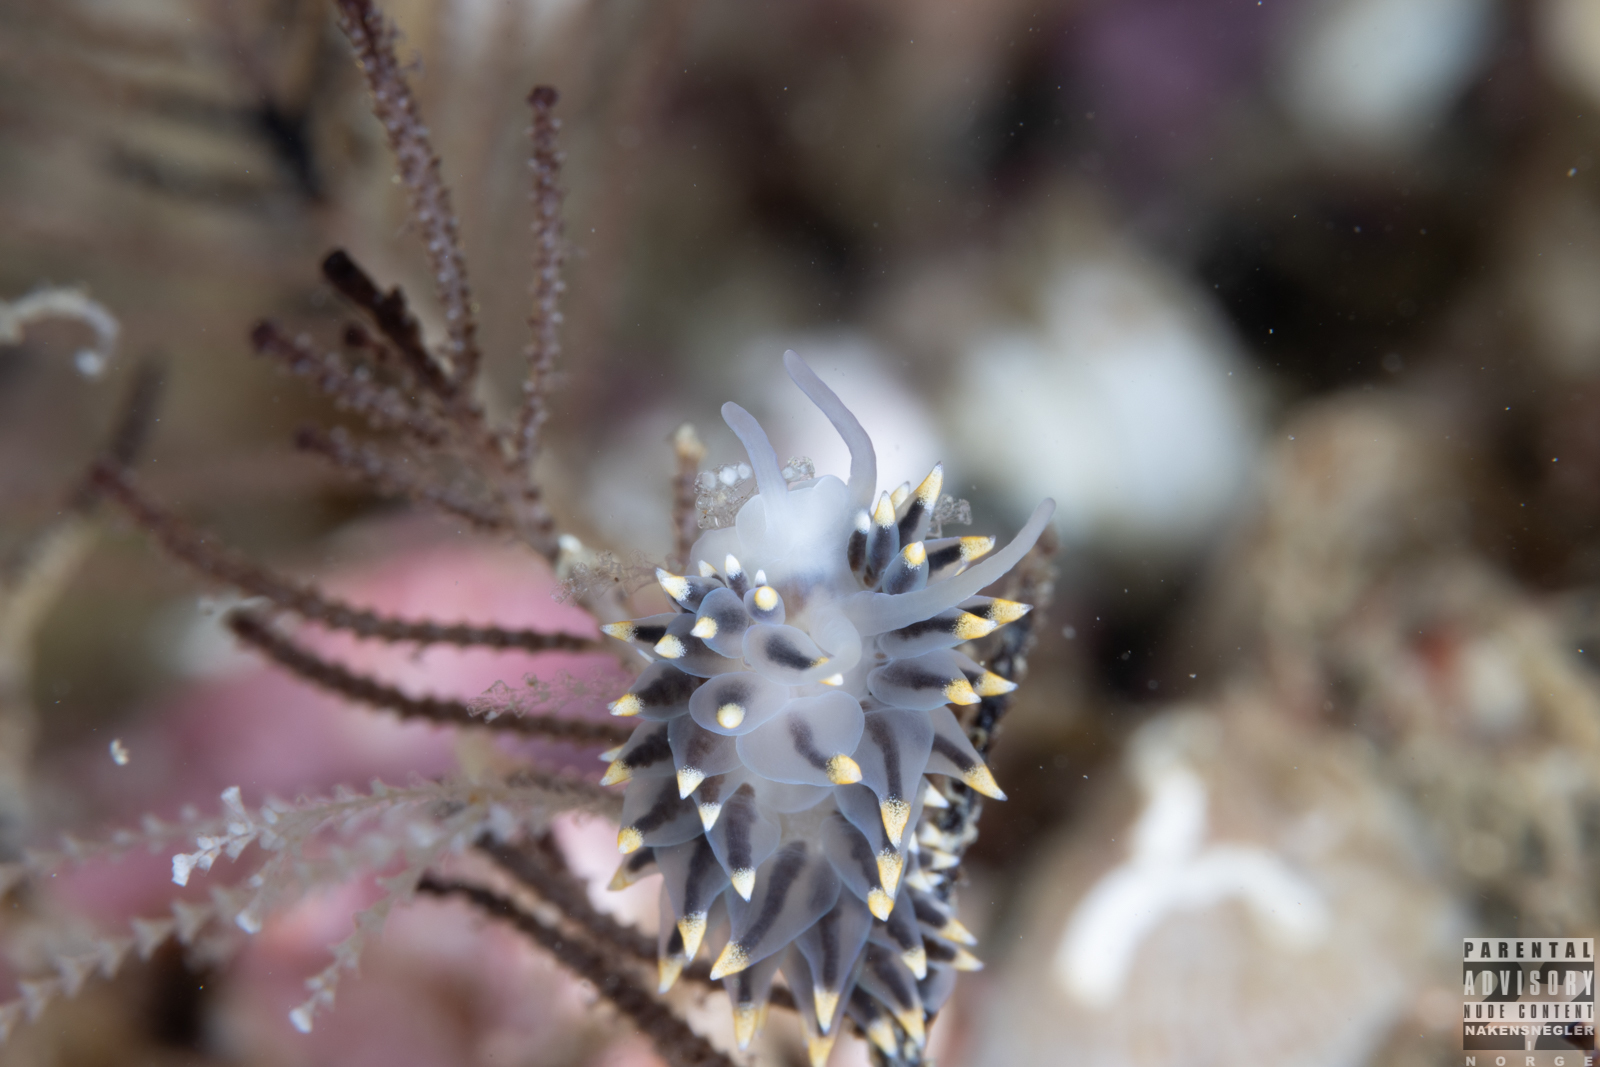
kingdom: Animalia
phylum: Mollusca
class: Gastropoda
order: Nudibranchia
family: Eubranchidae
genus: Eubranchus
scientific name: Eubranchus tricolor
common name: Painted balloon aeolis
